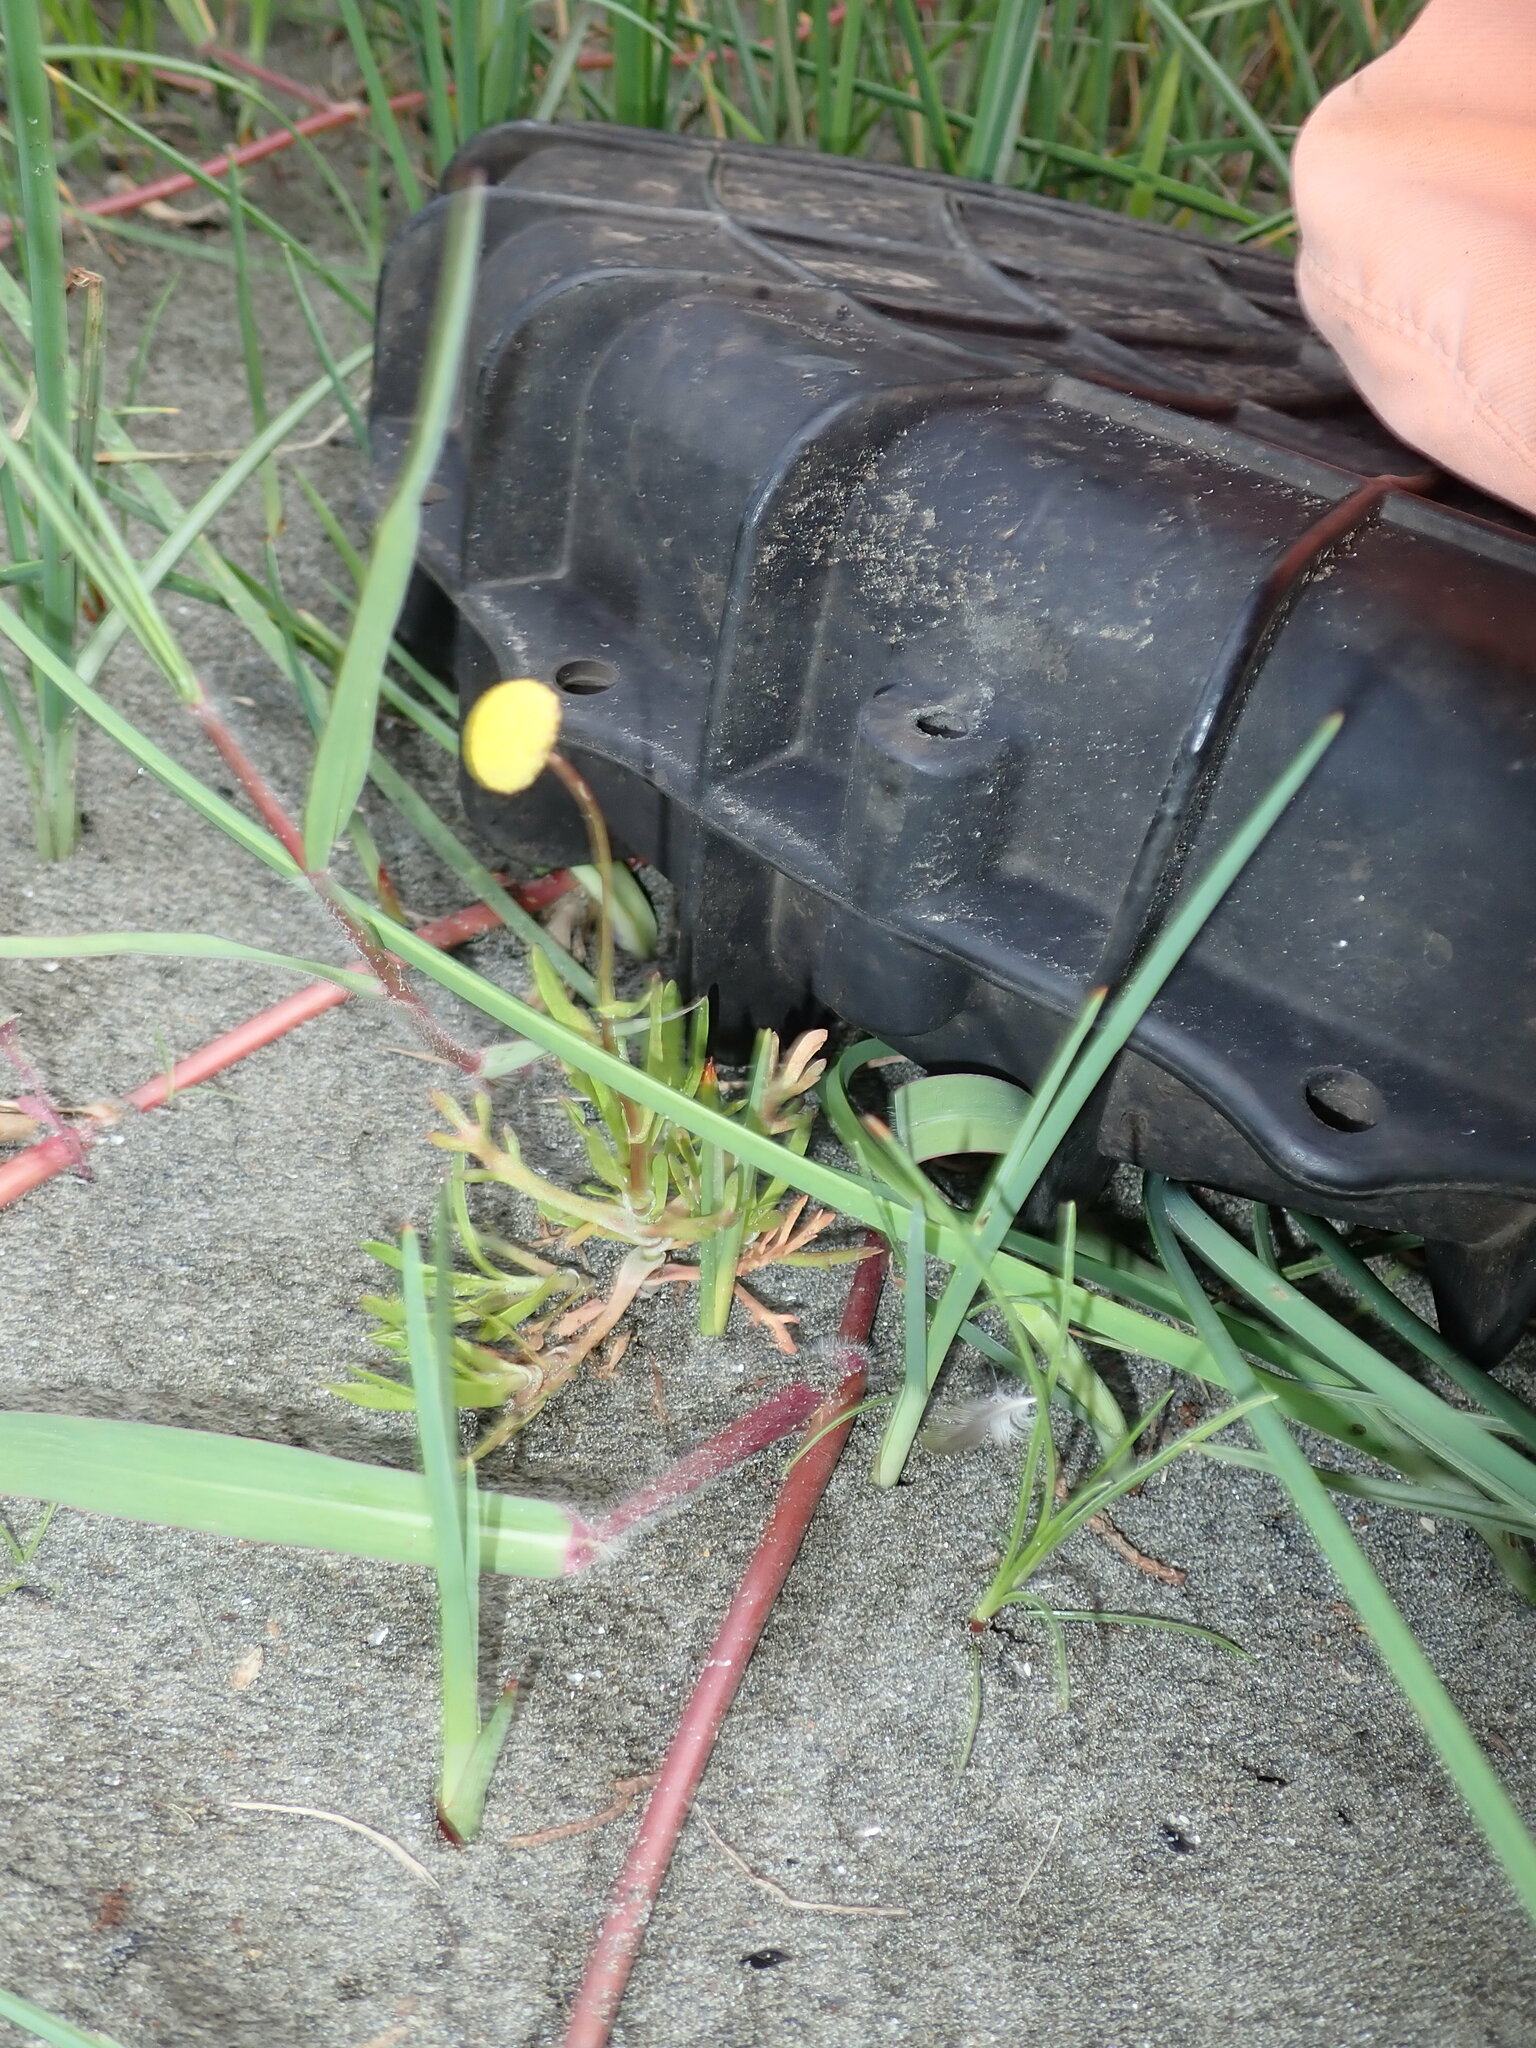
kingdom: Plantae
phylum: Tracheophyta
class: Magnoliopsida
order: Asterales
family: Asteraceae
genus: Cotula
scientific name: Cotula coronopifolia
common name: Buttonweed
